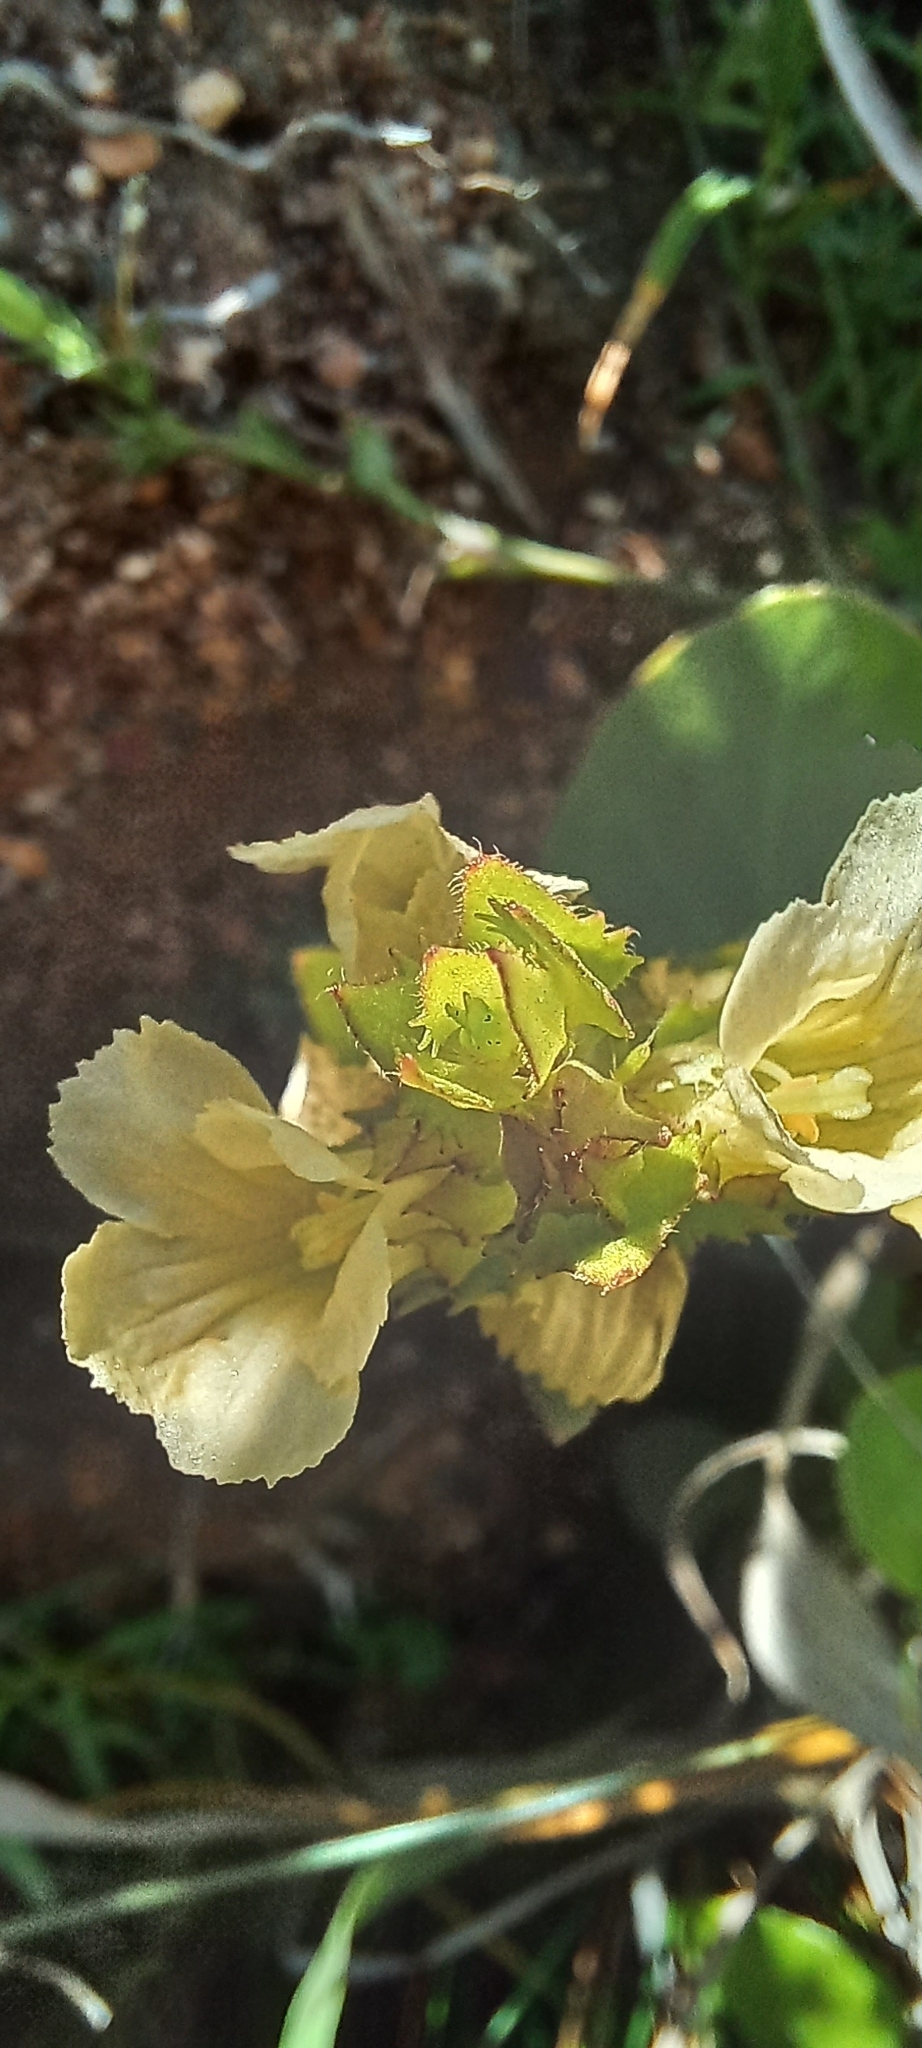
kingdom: Plantae
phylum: Tracheophyta
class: Magnoliopsida
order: Lamiales
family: Orobanchaceae
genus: Alectra
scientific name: Alectra sessiliflora
